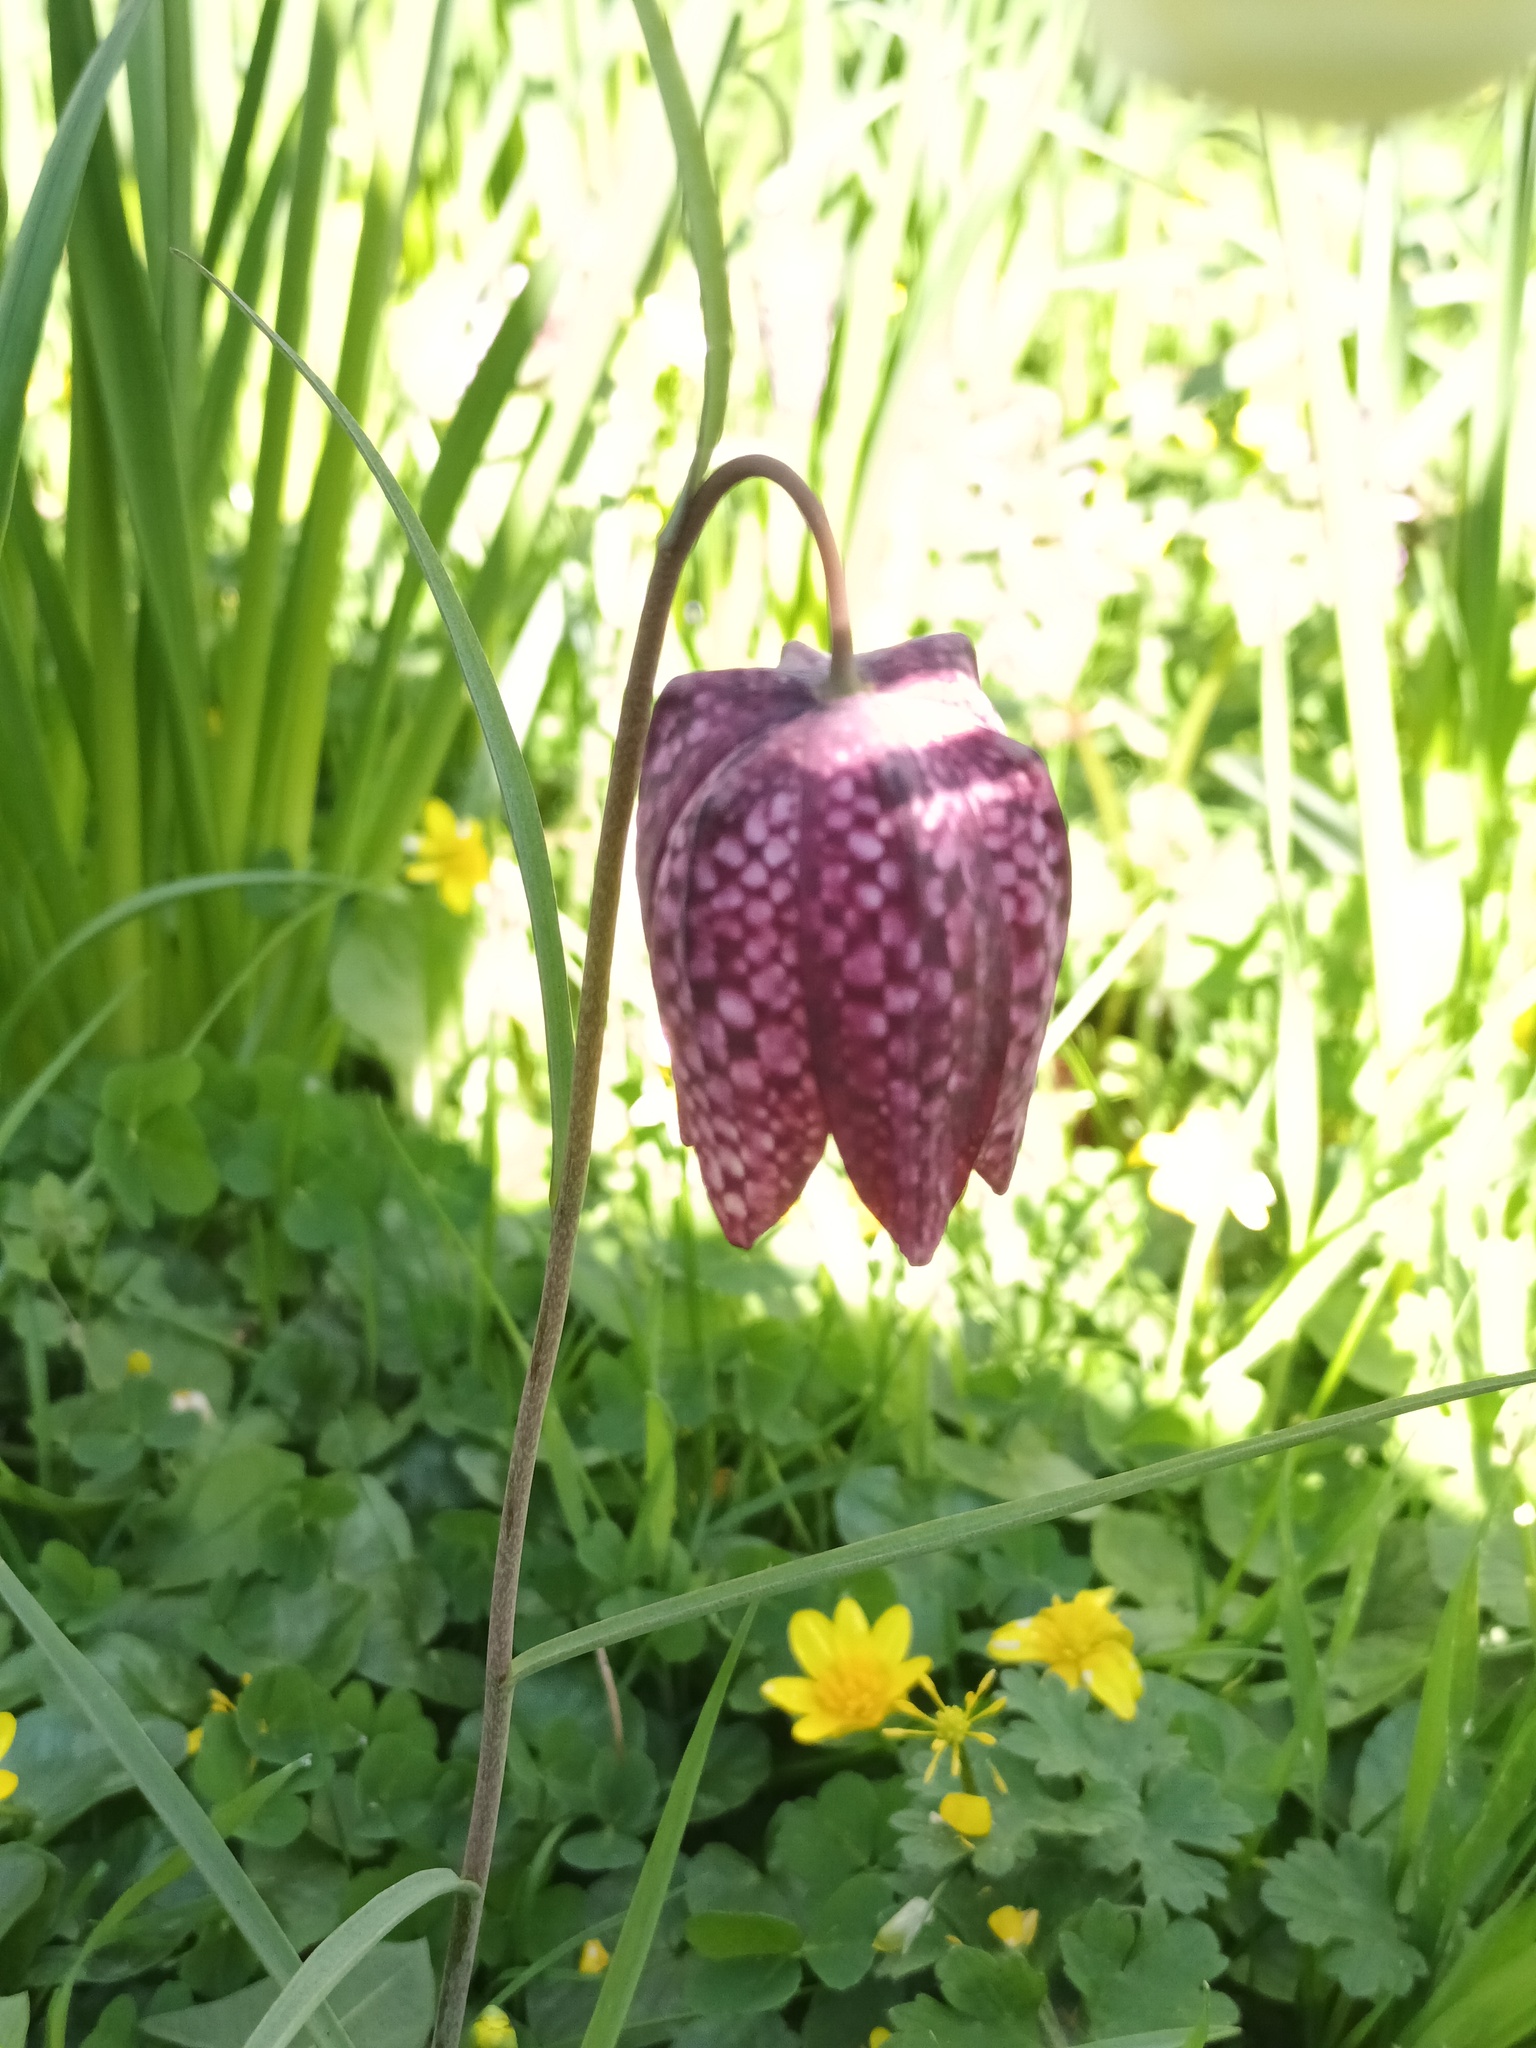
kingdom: Plantae
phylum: Tracheophyta
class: Liliopsida
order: Liliales
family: Liliaceae
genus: Fritillaria
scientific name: Fritillaria meleagris
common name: Fritillary
